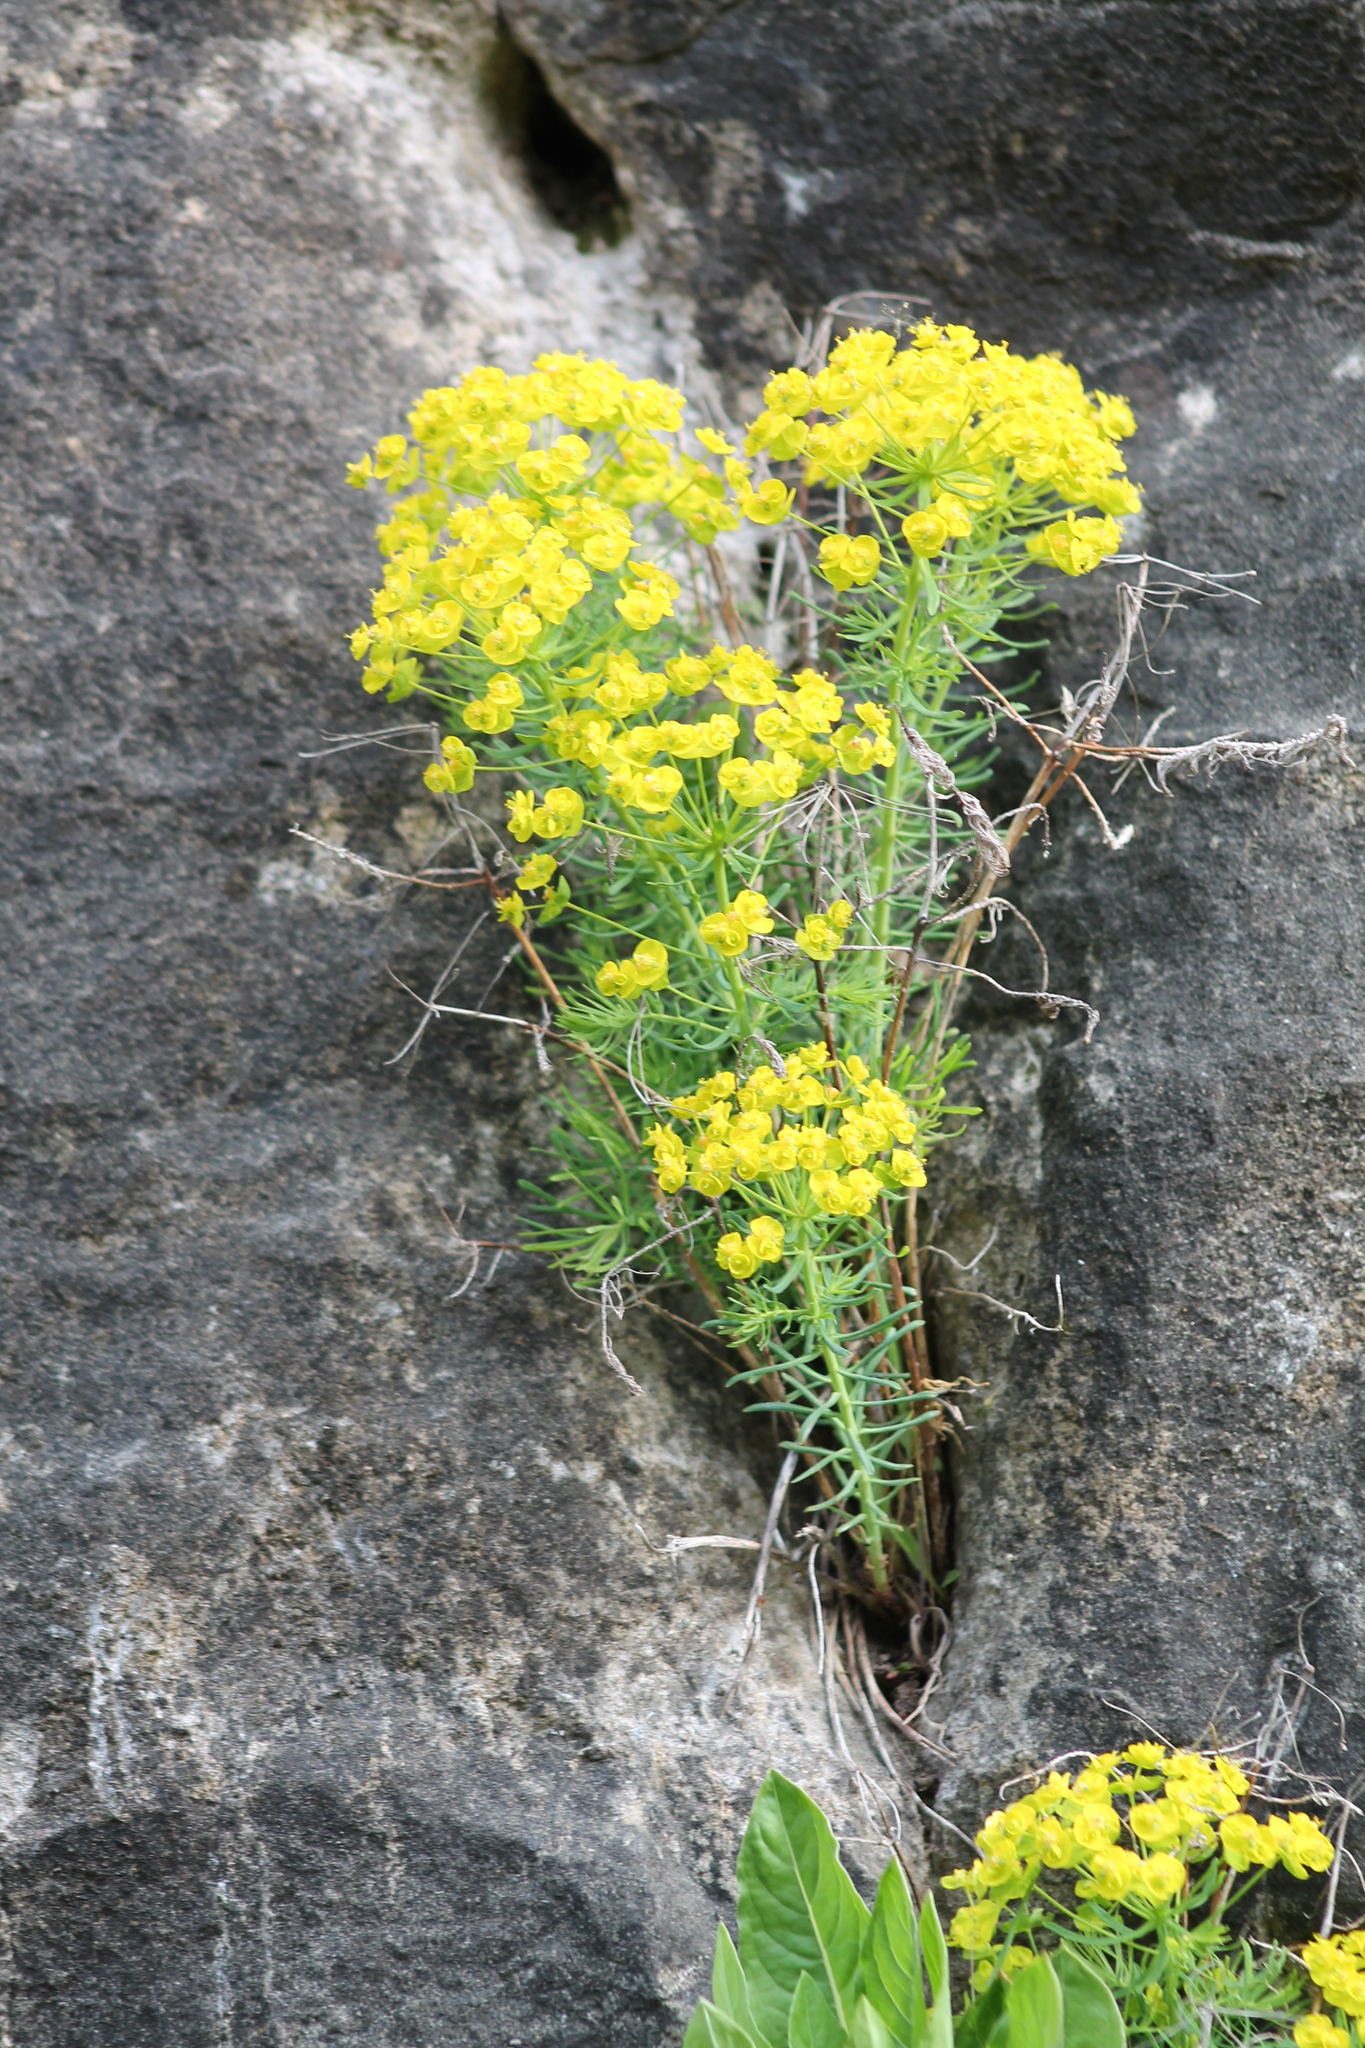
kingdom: Plantae
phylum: Tracheophyta
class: Magnoliopsida
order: Malpighiales
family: Euphorbiaceae
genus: Euphorbia
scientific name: Euphorbia cyparissias
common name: Cypress spurge
